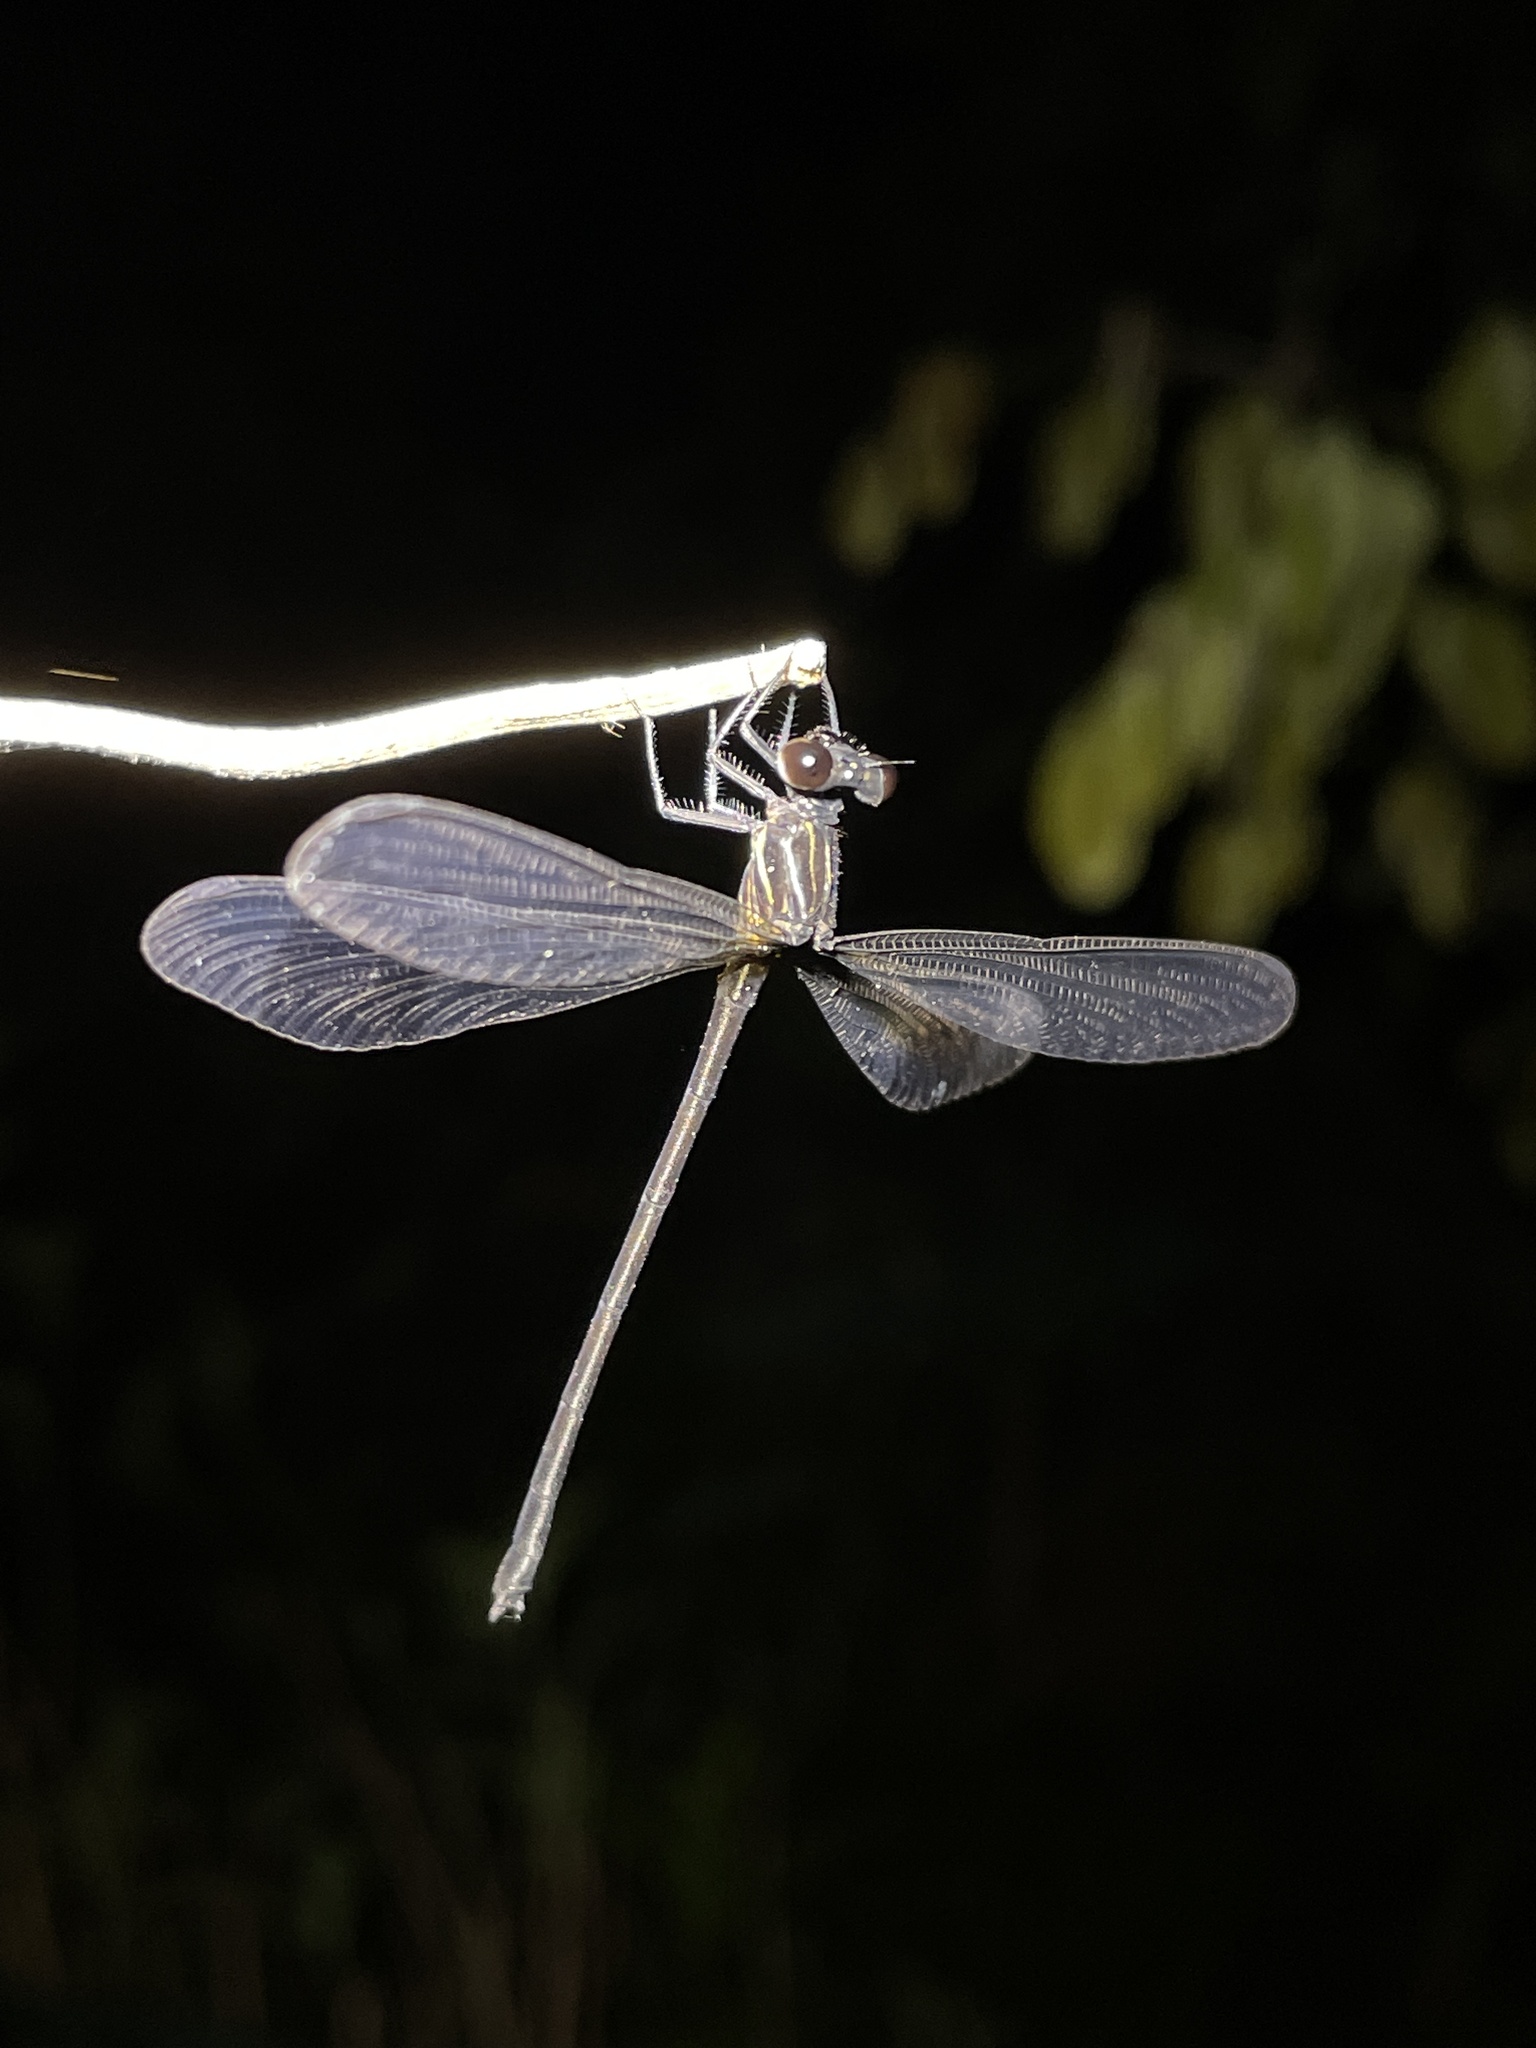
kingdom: Animalia
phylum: Arthropoda
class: Insecta
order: Odonata
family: Euphaeidae
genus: Euphaea
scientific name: Euphaea decorata
